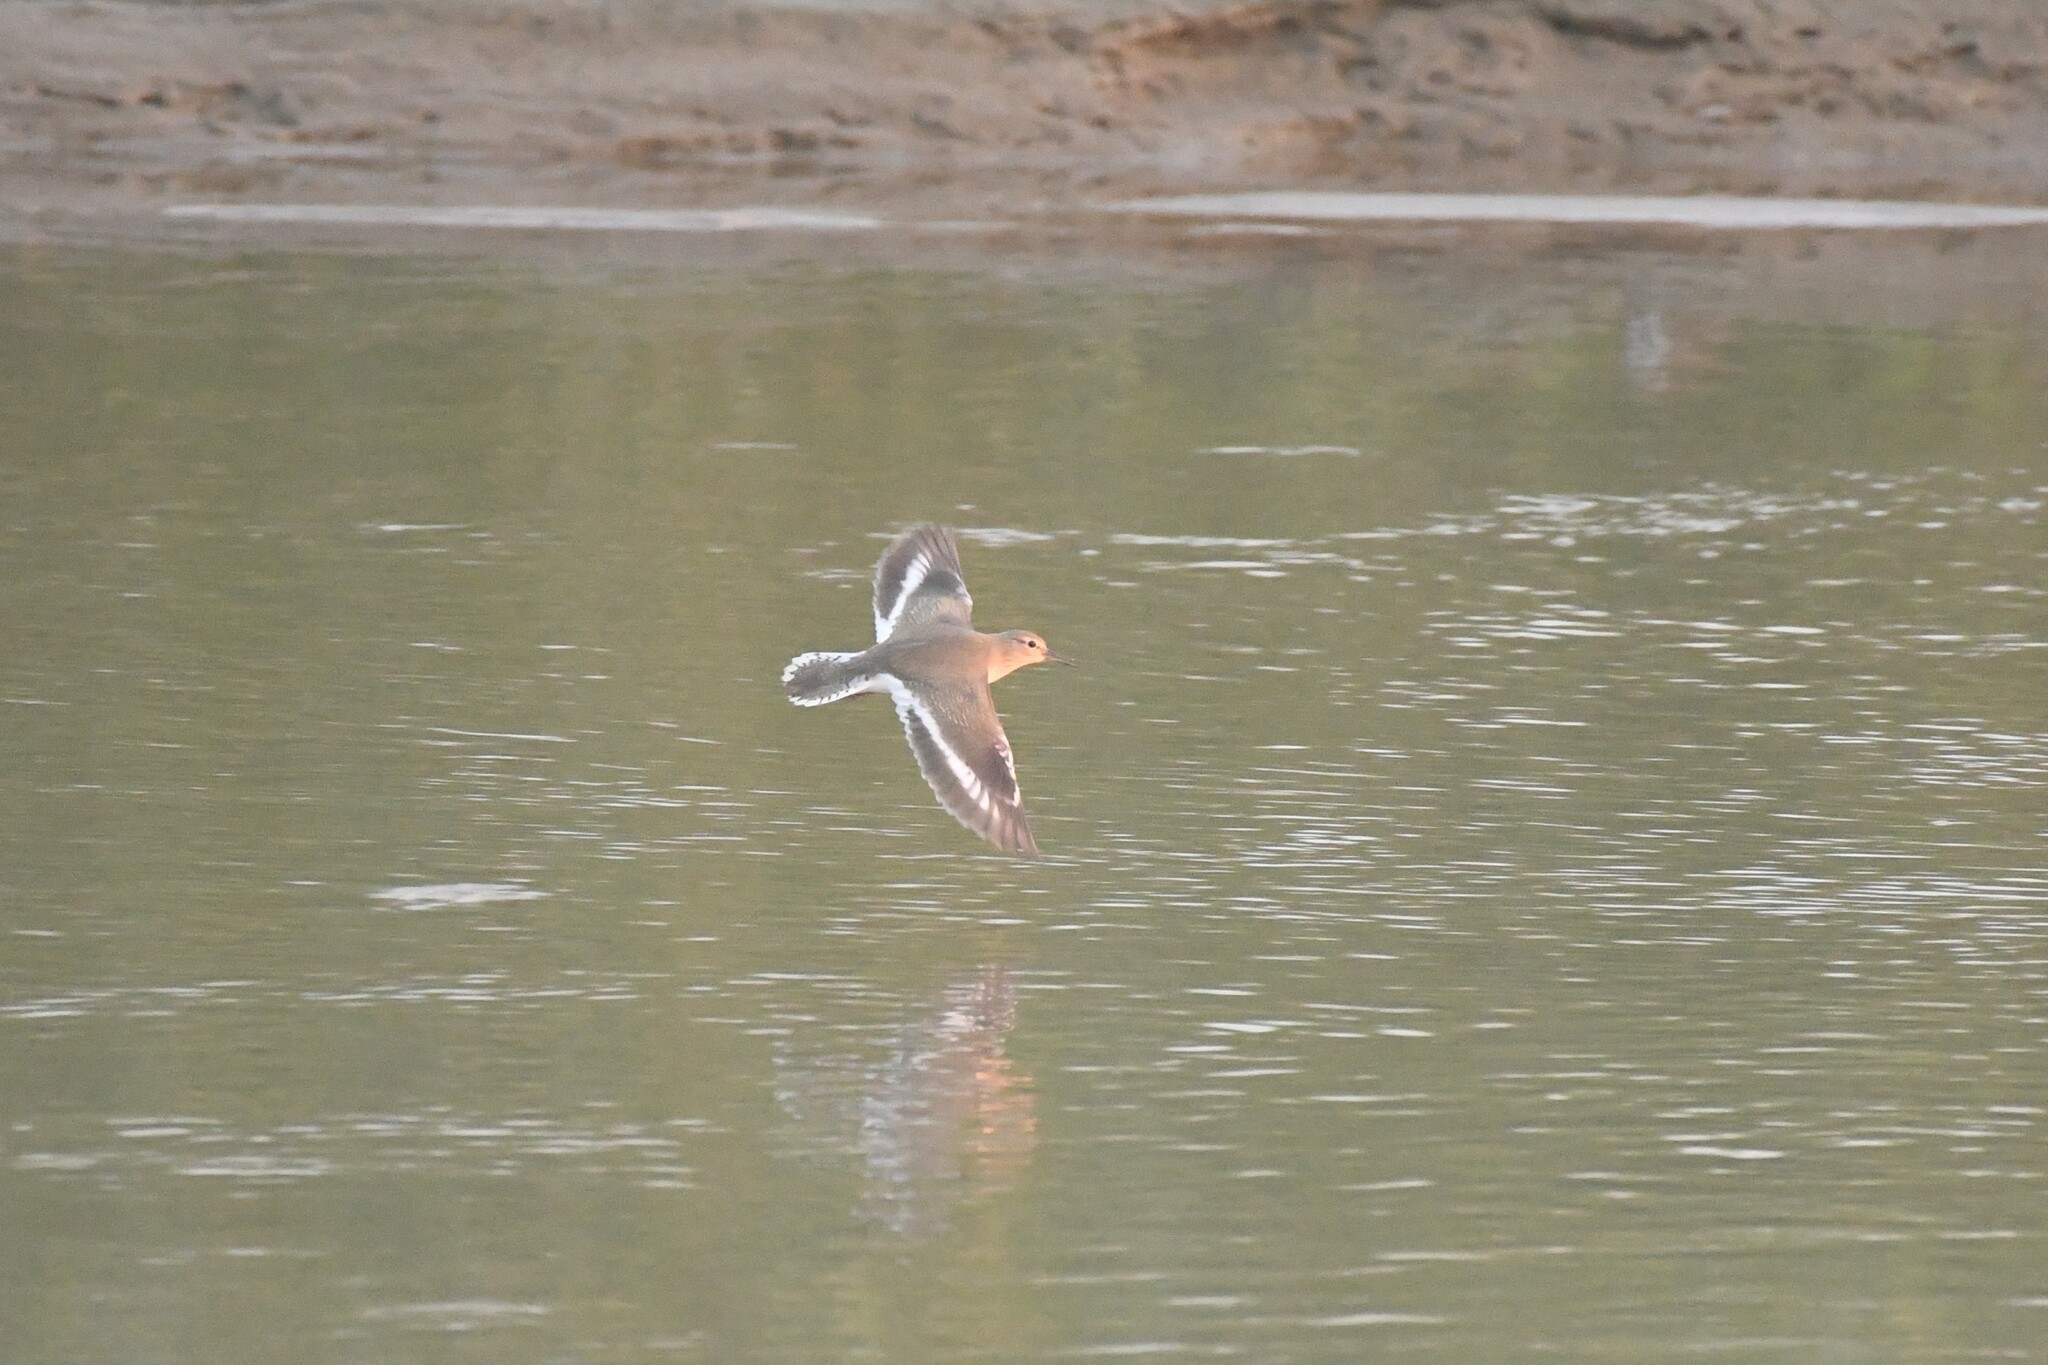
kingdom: Animalia
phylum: Chordata
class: Aves
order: Charadriiformes
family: Scolopacidae
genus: Actitis
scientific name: Actitis hypoleucos
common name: Common sandpiper
